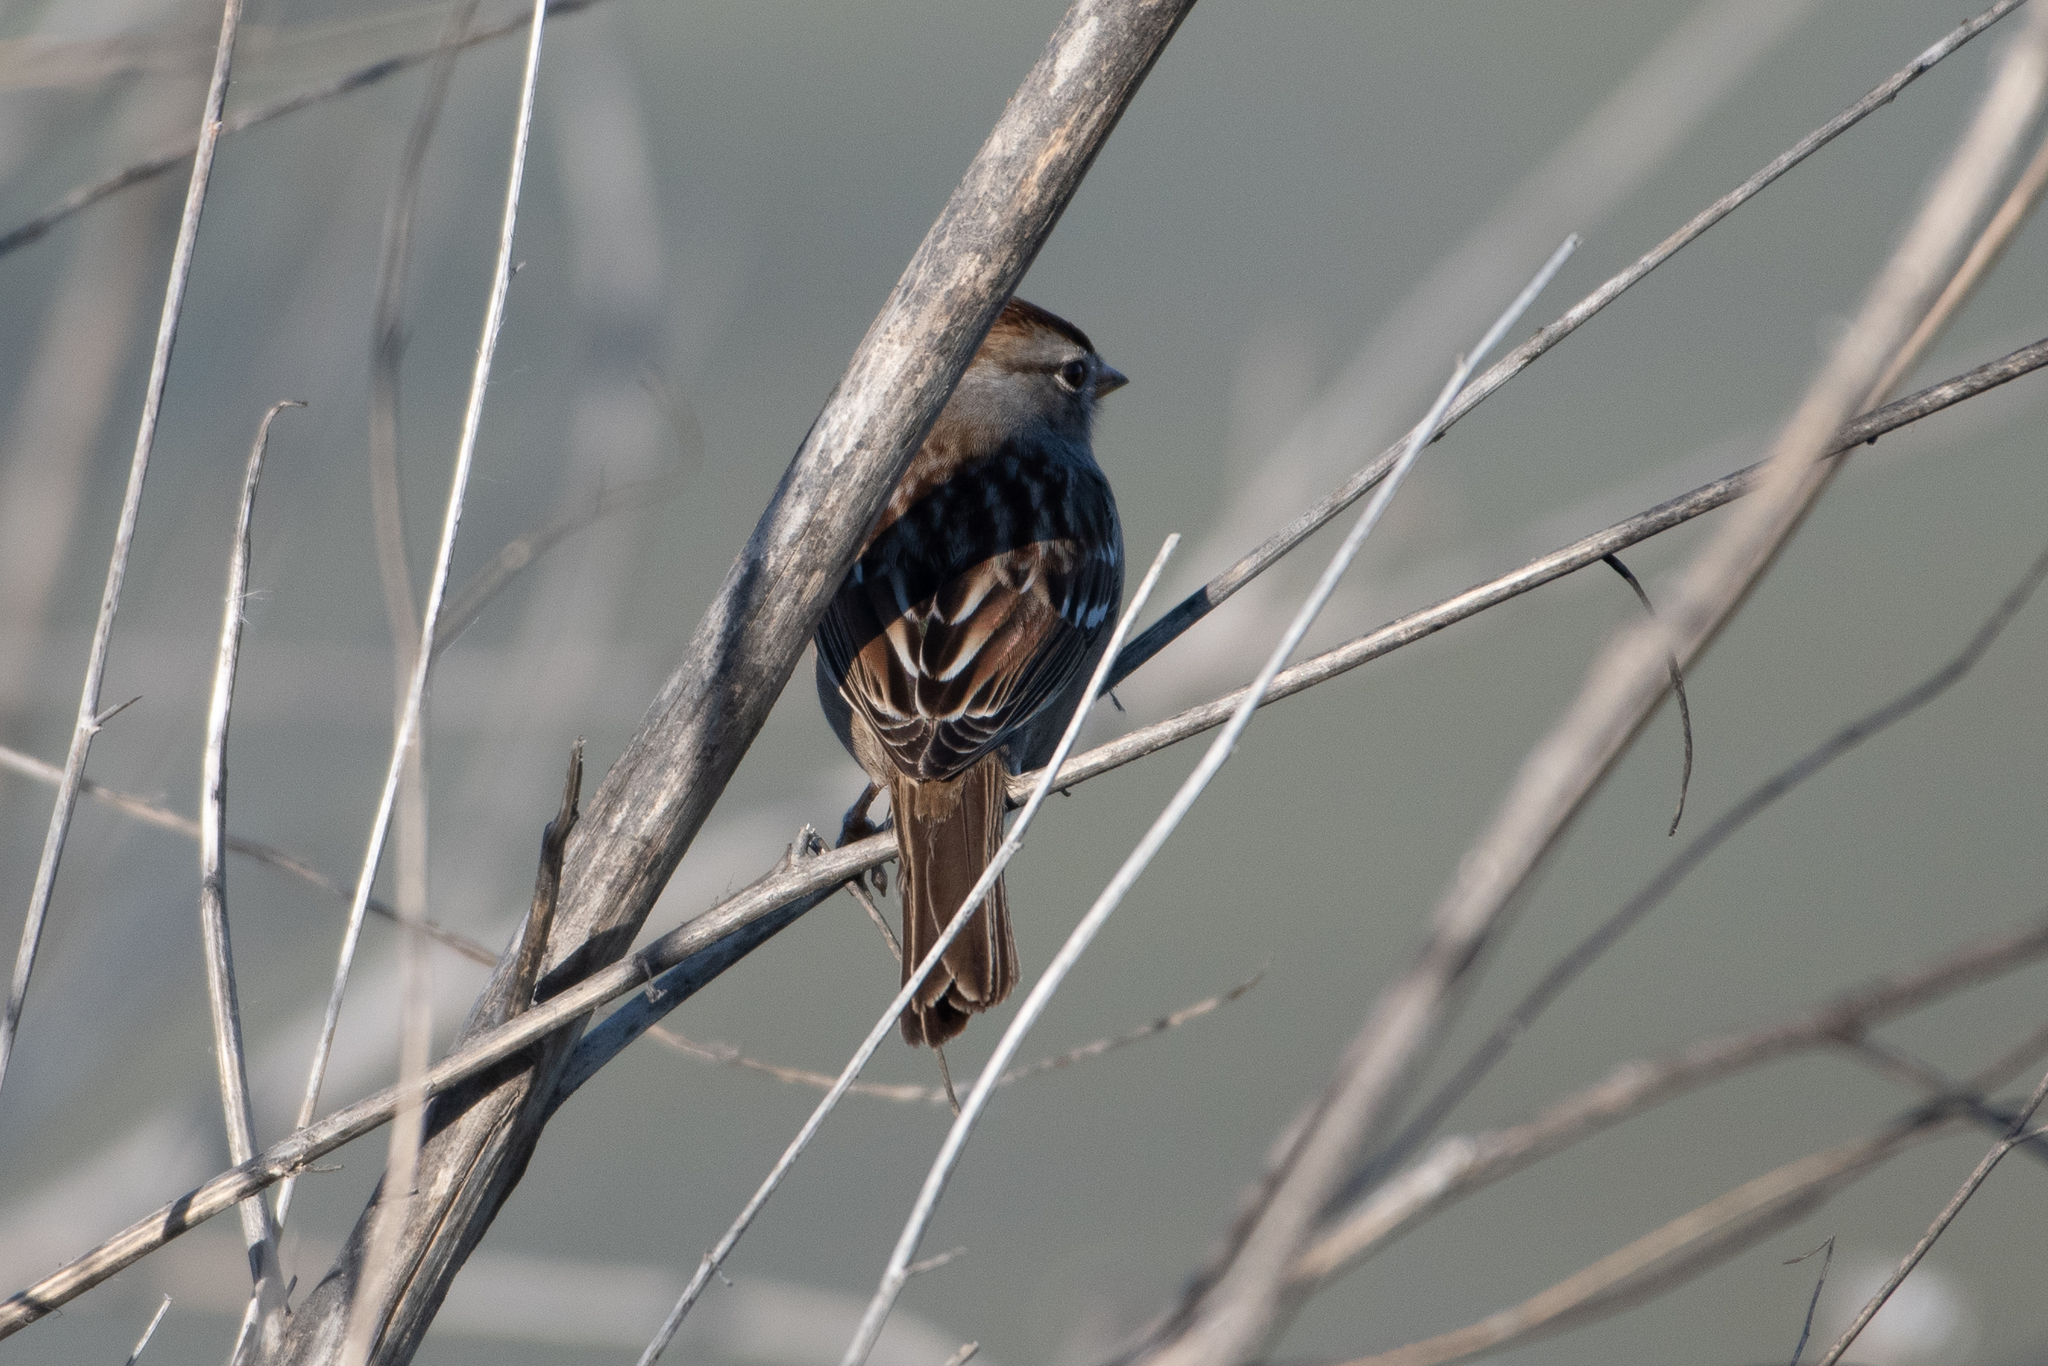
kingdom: Animalia
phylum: Chordata
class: Aves
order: Passeriformes
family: Passerellidae
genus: Zonotrichia
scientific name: Zonotrichia leucophrys
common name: White-crowned sparrow
